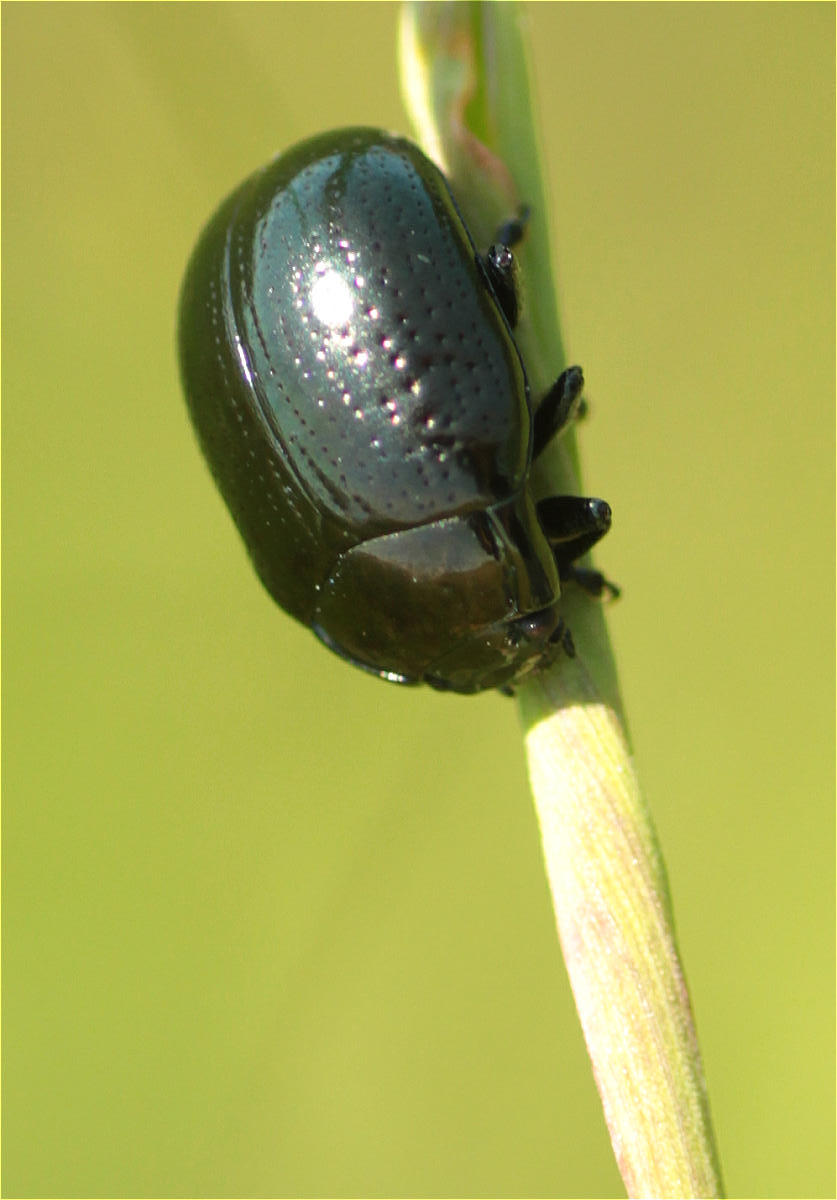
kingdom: Animalia
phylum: Arthropoda
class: Insecta
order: Coleoptera
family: Chrysomelidae
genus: Chrysolina
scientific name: Chrysolina oricalcia
